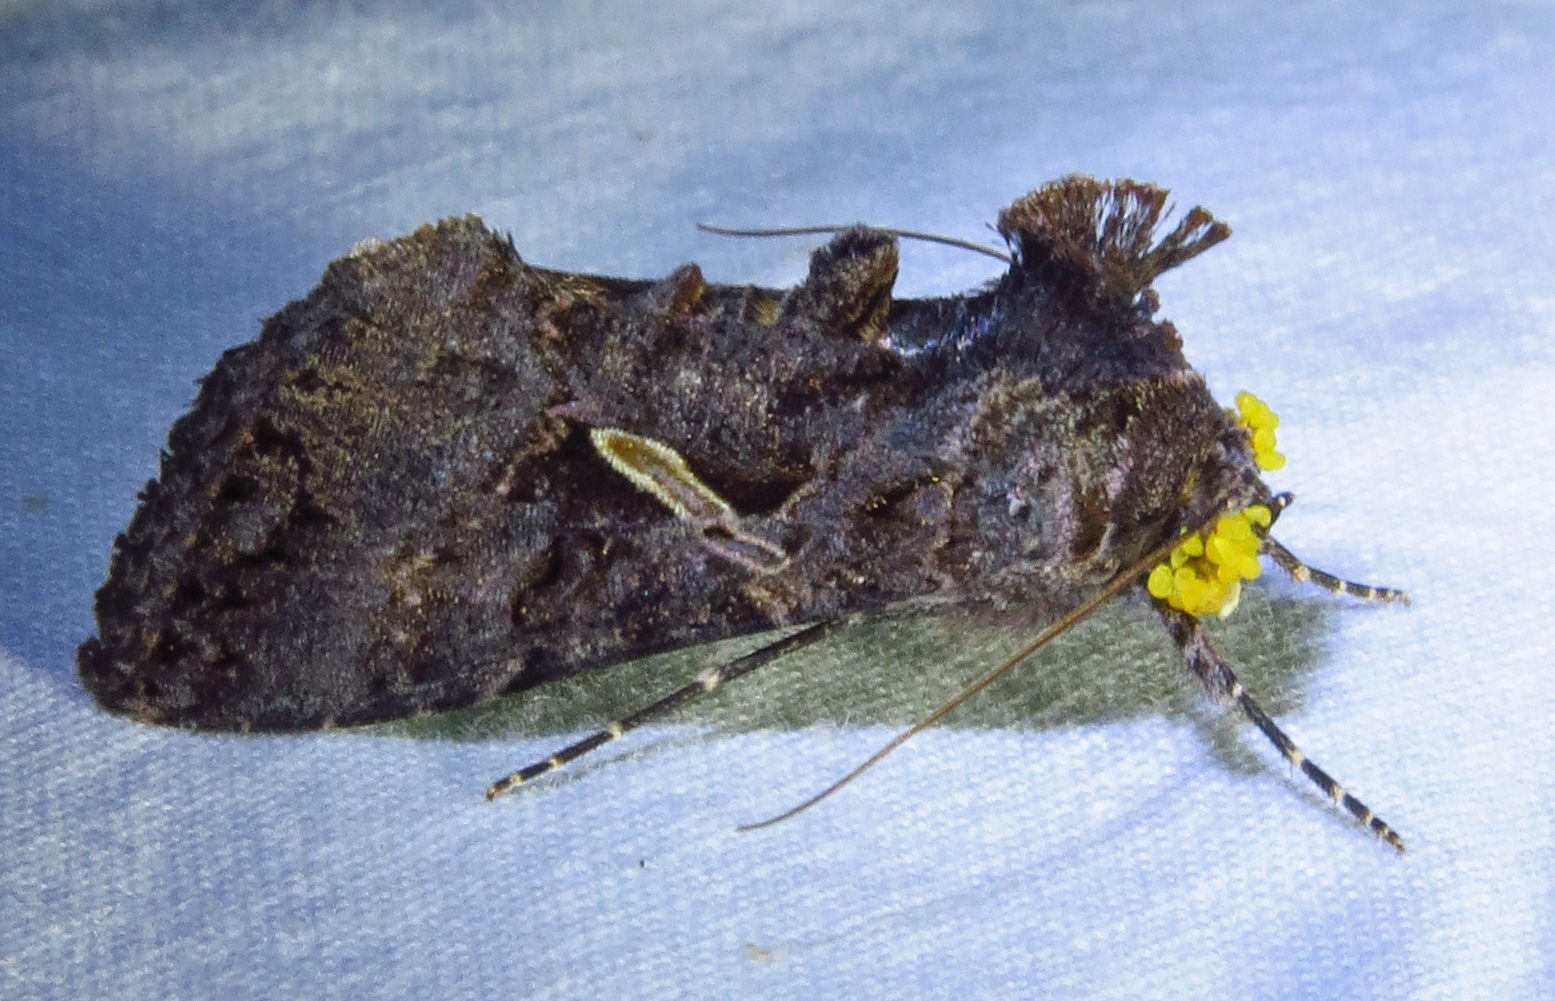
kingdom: Animalia
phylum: Arthropoda
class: Insecta
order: Lepidoptera
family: Noctuidae
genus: Ctenoplusia
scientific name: Ctenoplusia oxygramma
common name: Sharp-stigma looper moth
